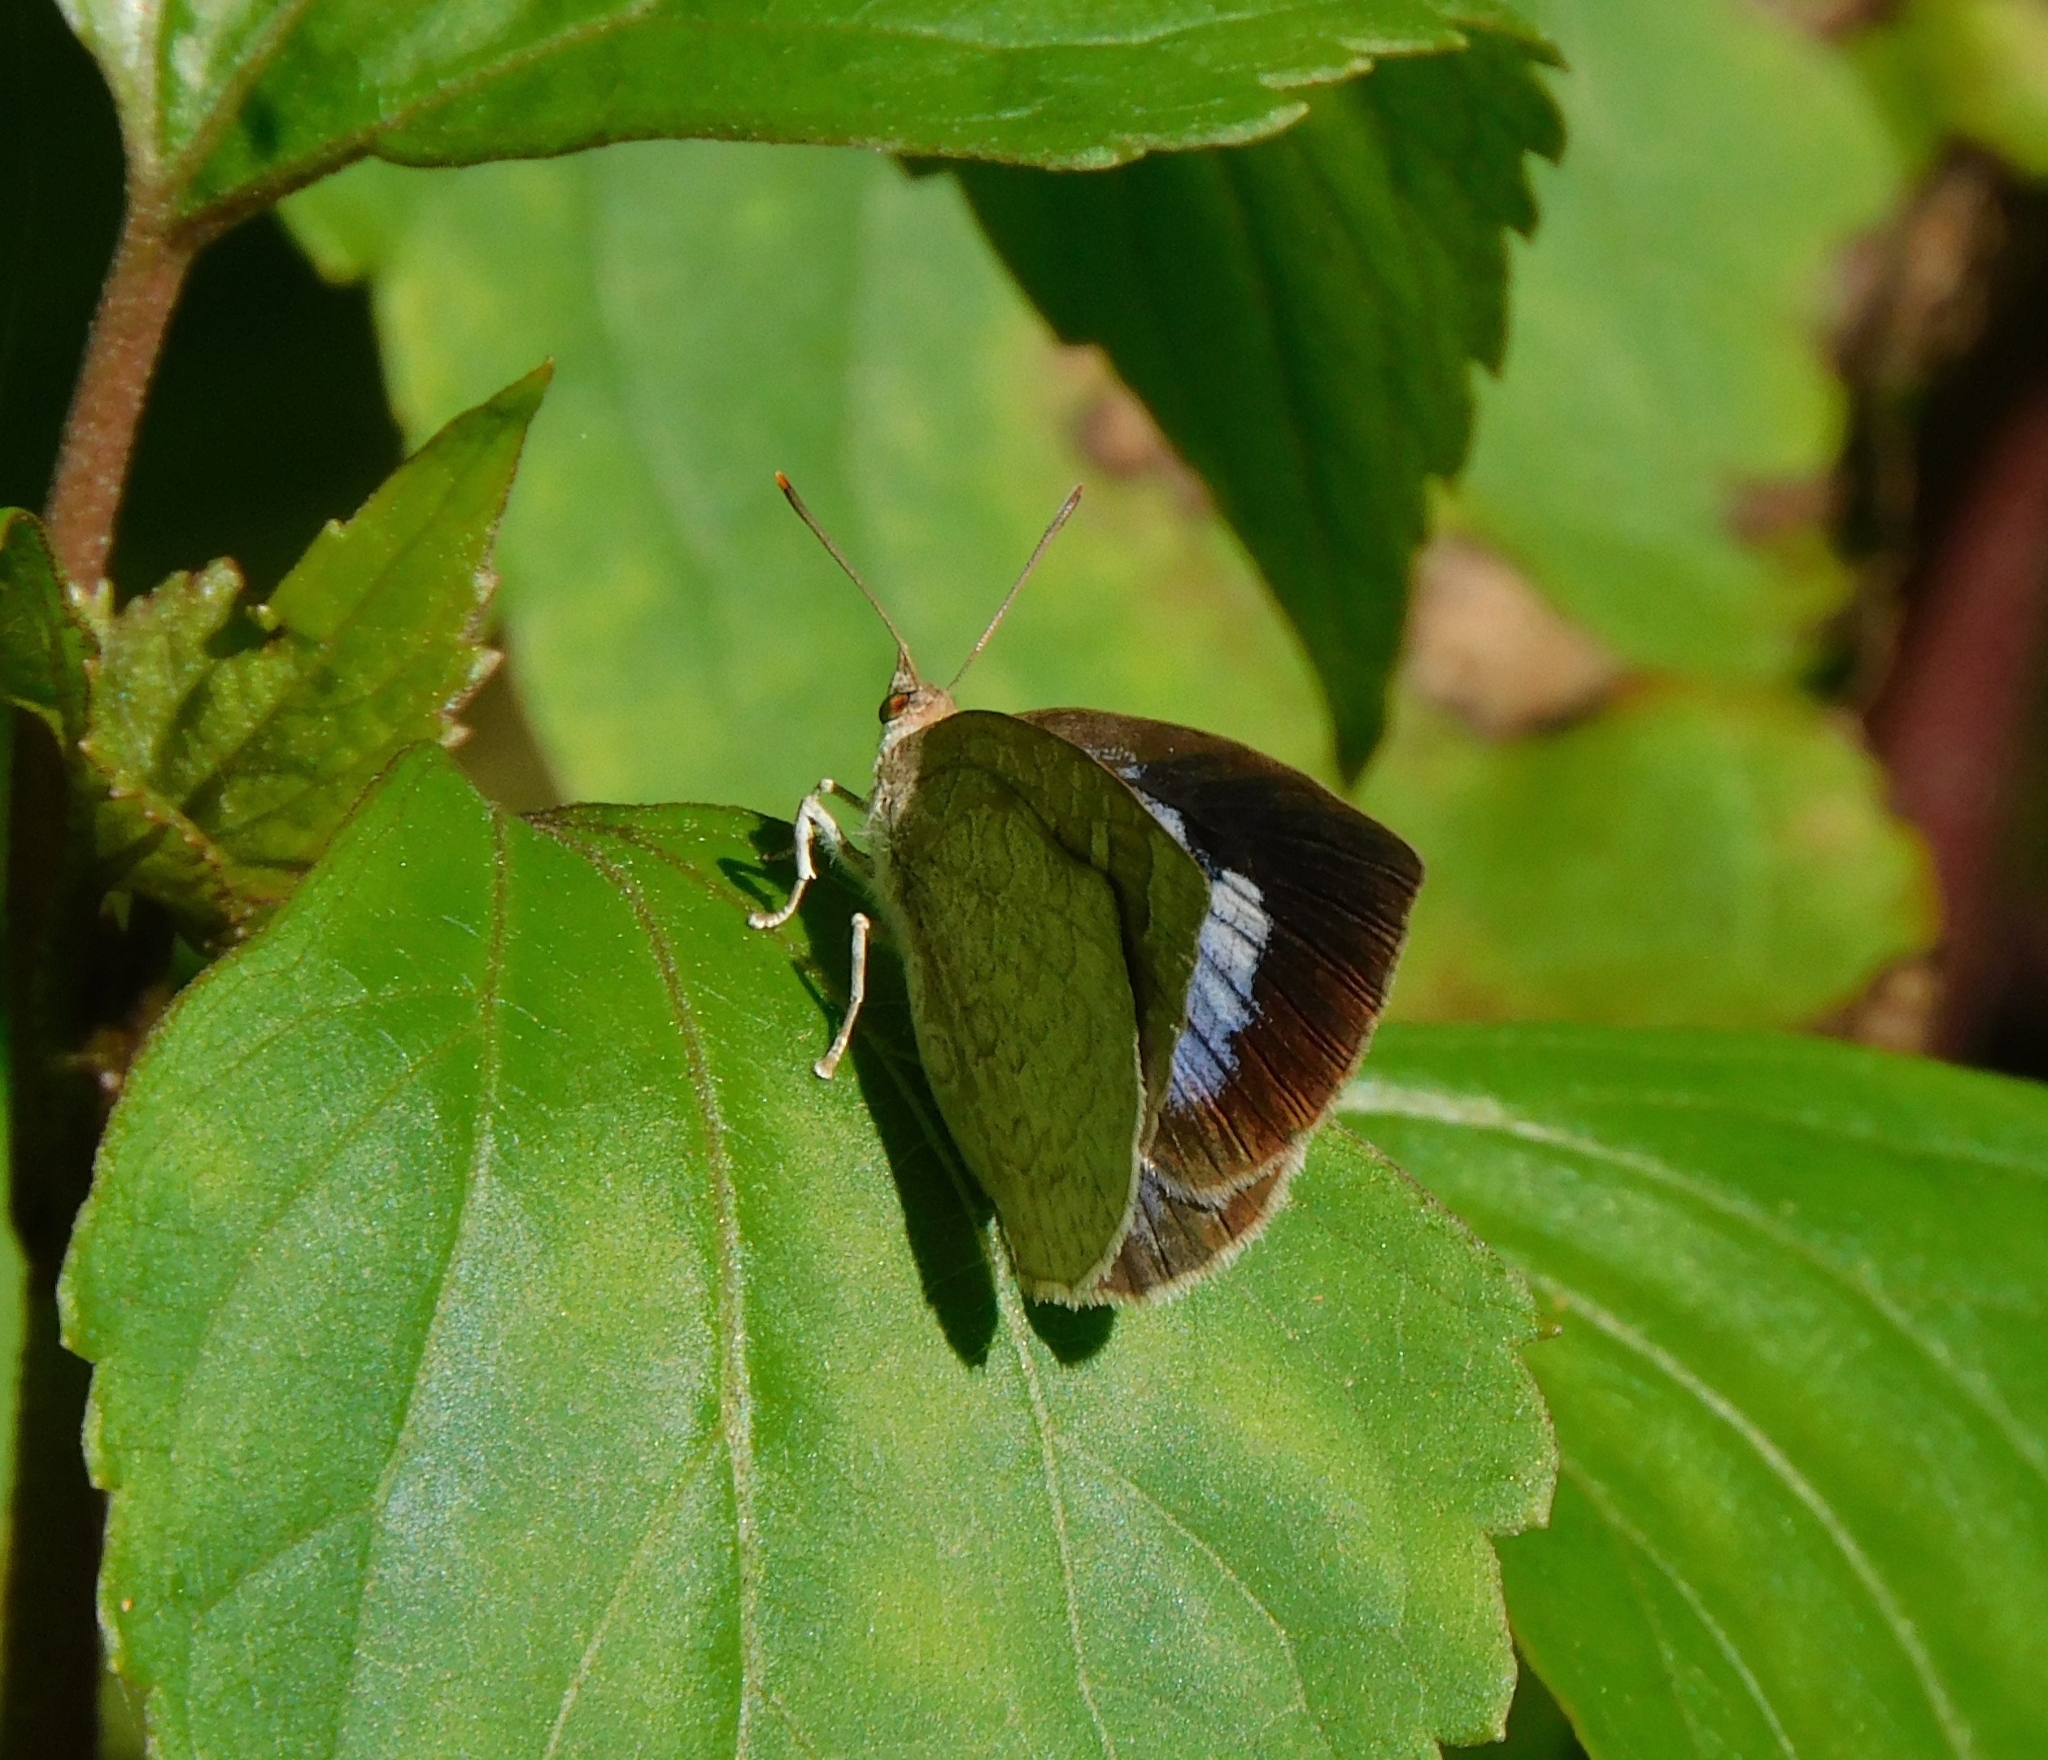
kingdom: Animalia
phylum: Arthropoda
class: Insecta
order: Lepidoptera
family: Lycaenidae
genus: Arhopala
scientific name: Arhopala ganesa
